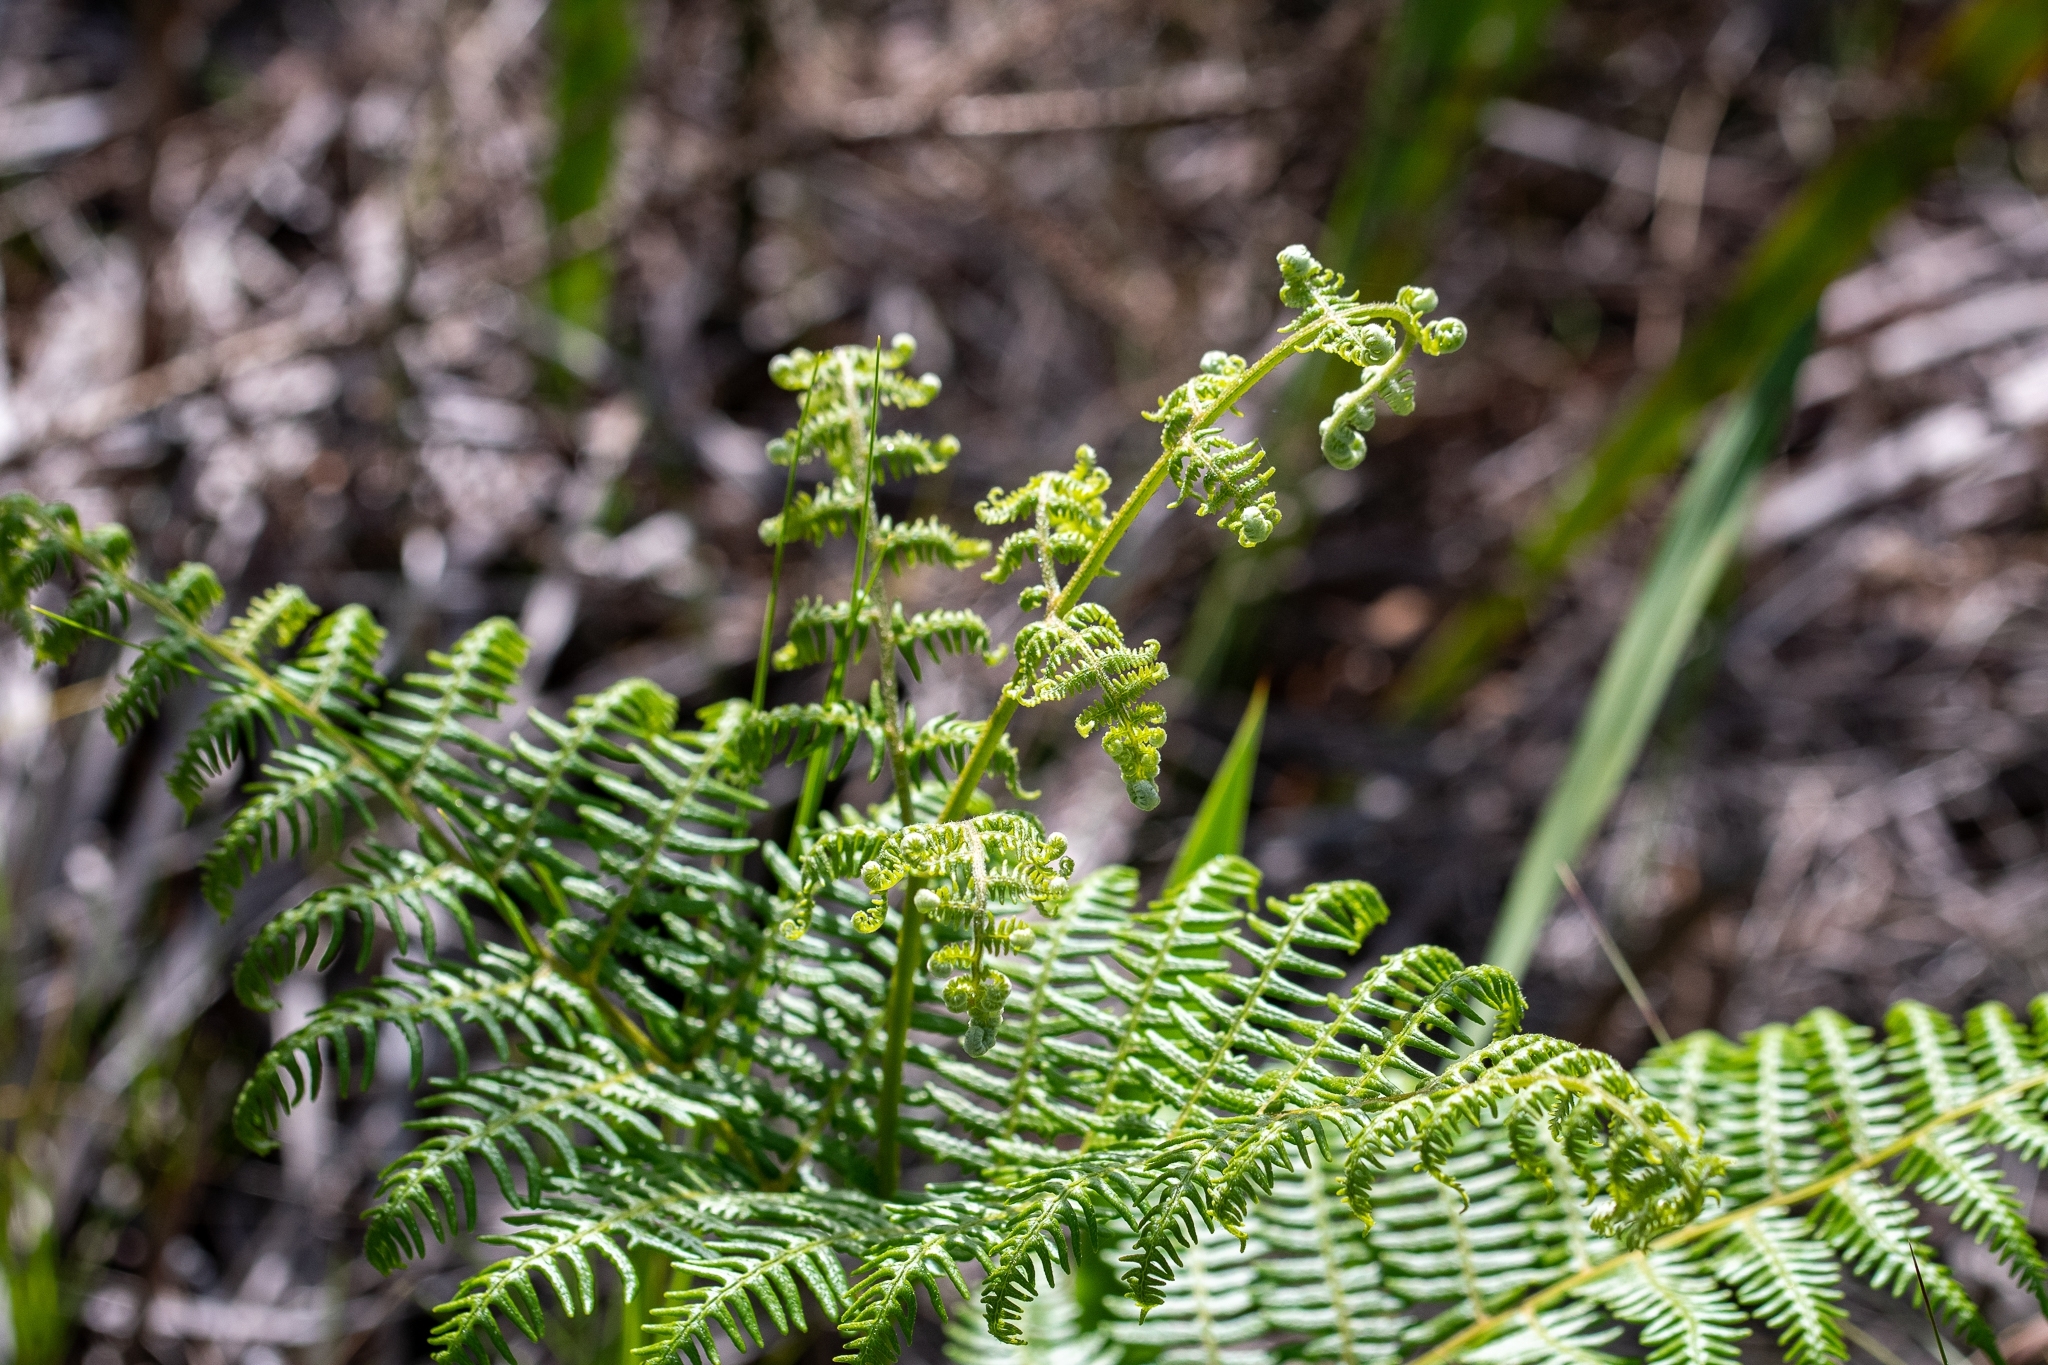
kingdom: Plantae
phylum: Tracheophyta
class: Polypodiopsida
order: Polypodiales
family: Dennstaedtiaceae
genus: Pteridium
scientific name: Pteridium aquilinum
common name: Bracken
